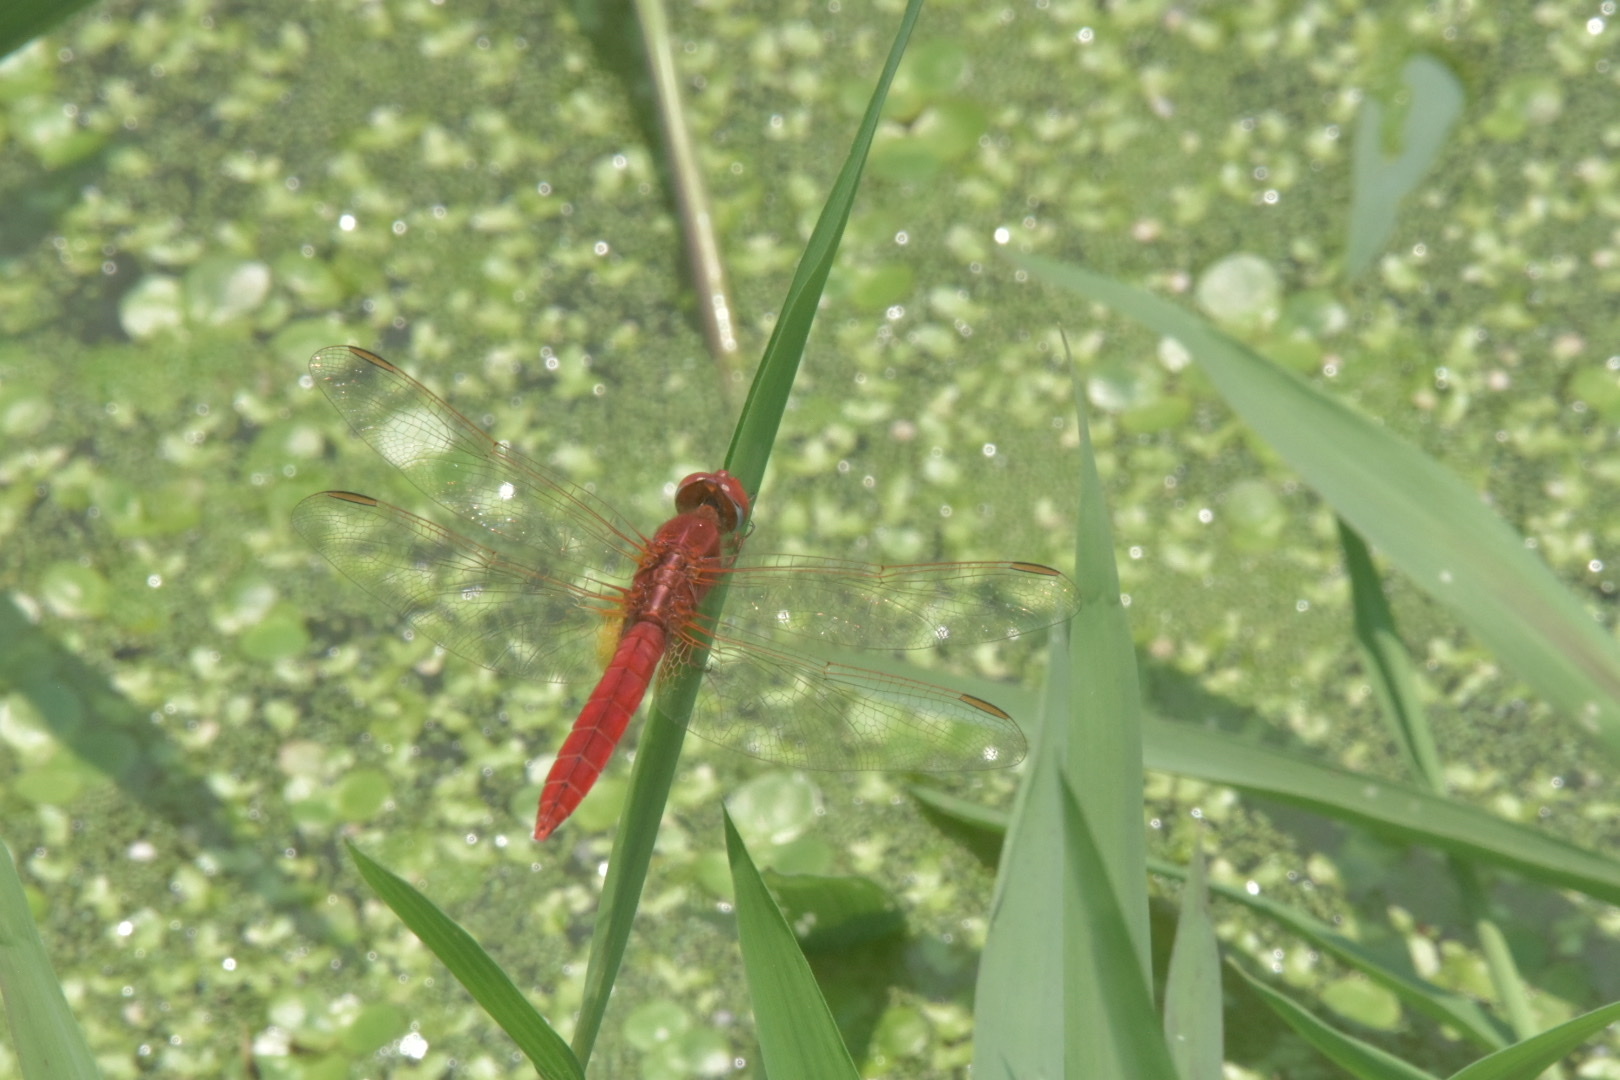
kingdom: Animalia
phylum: Arthropoda
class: Insecta
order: Odonata
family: Libellulidae
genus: Crocothemis
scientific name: Crocothemis erythraea
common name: Scarlet dragonfly
